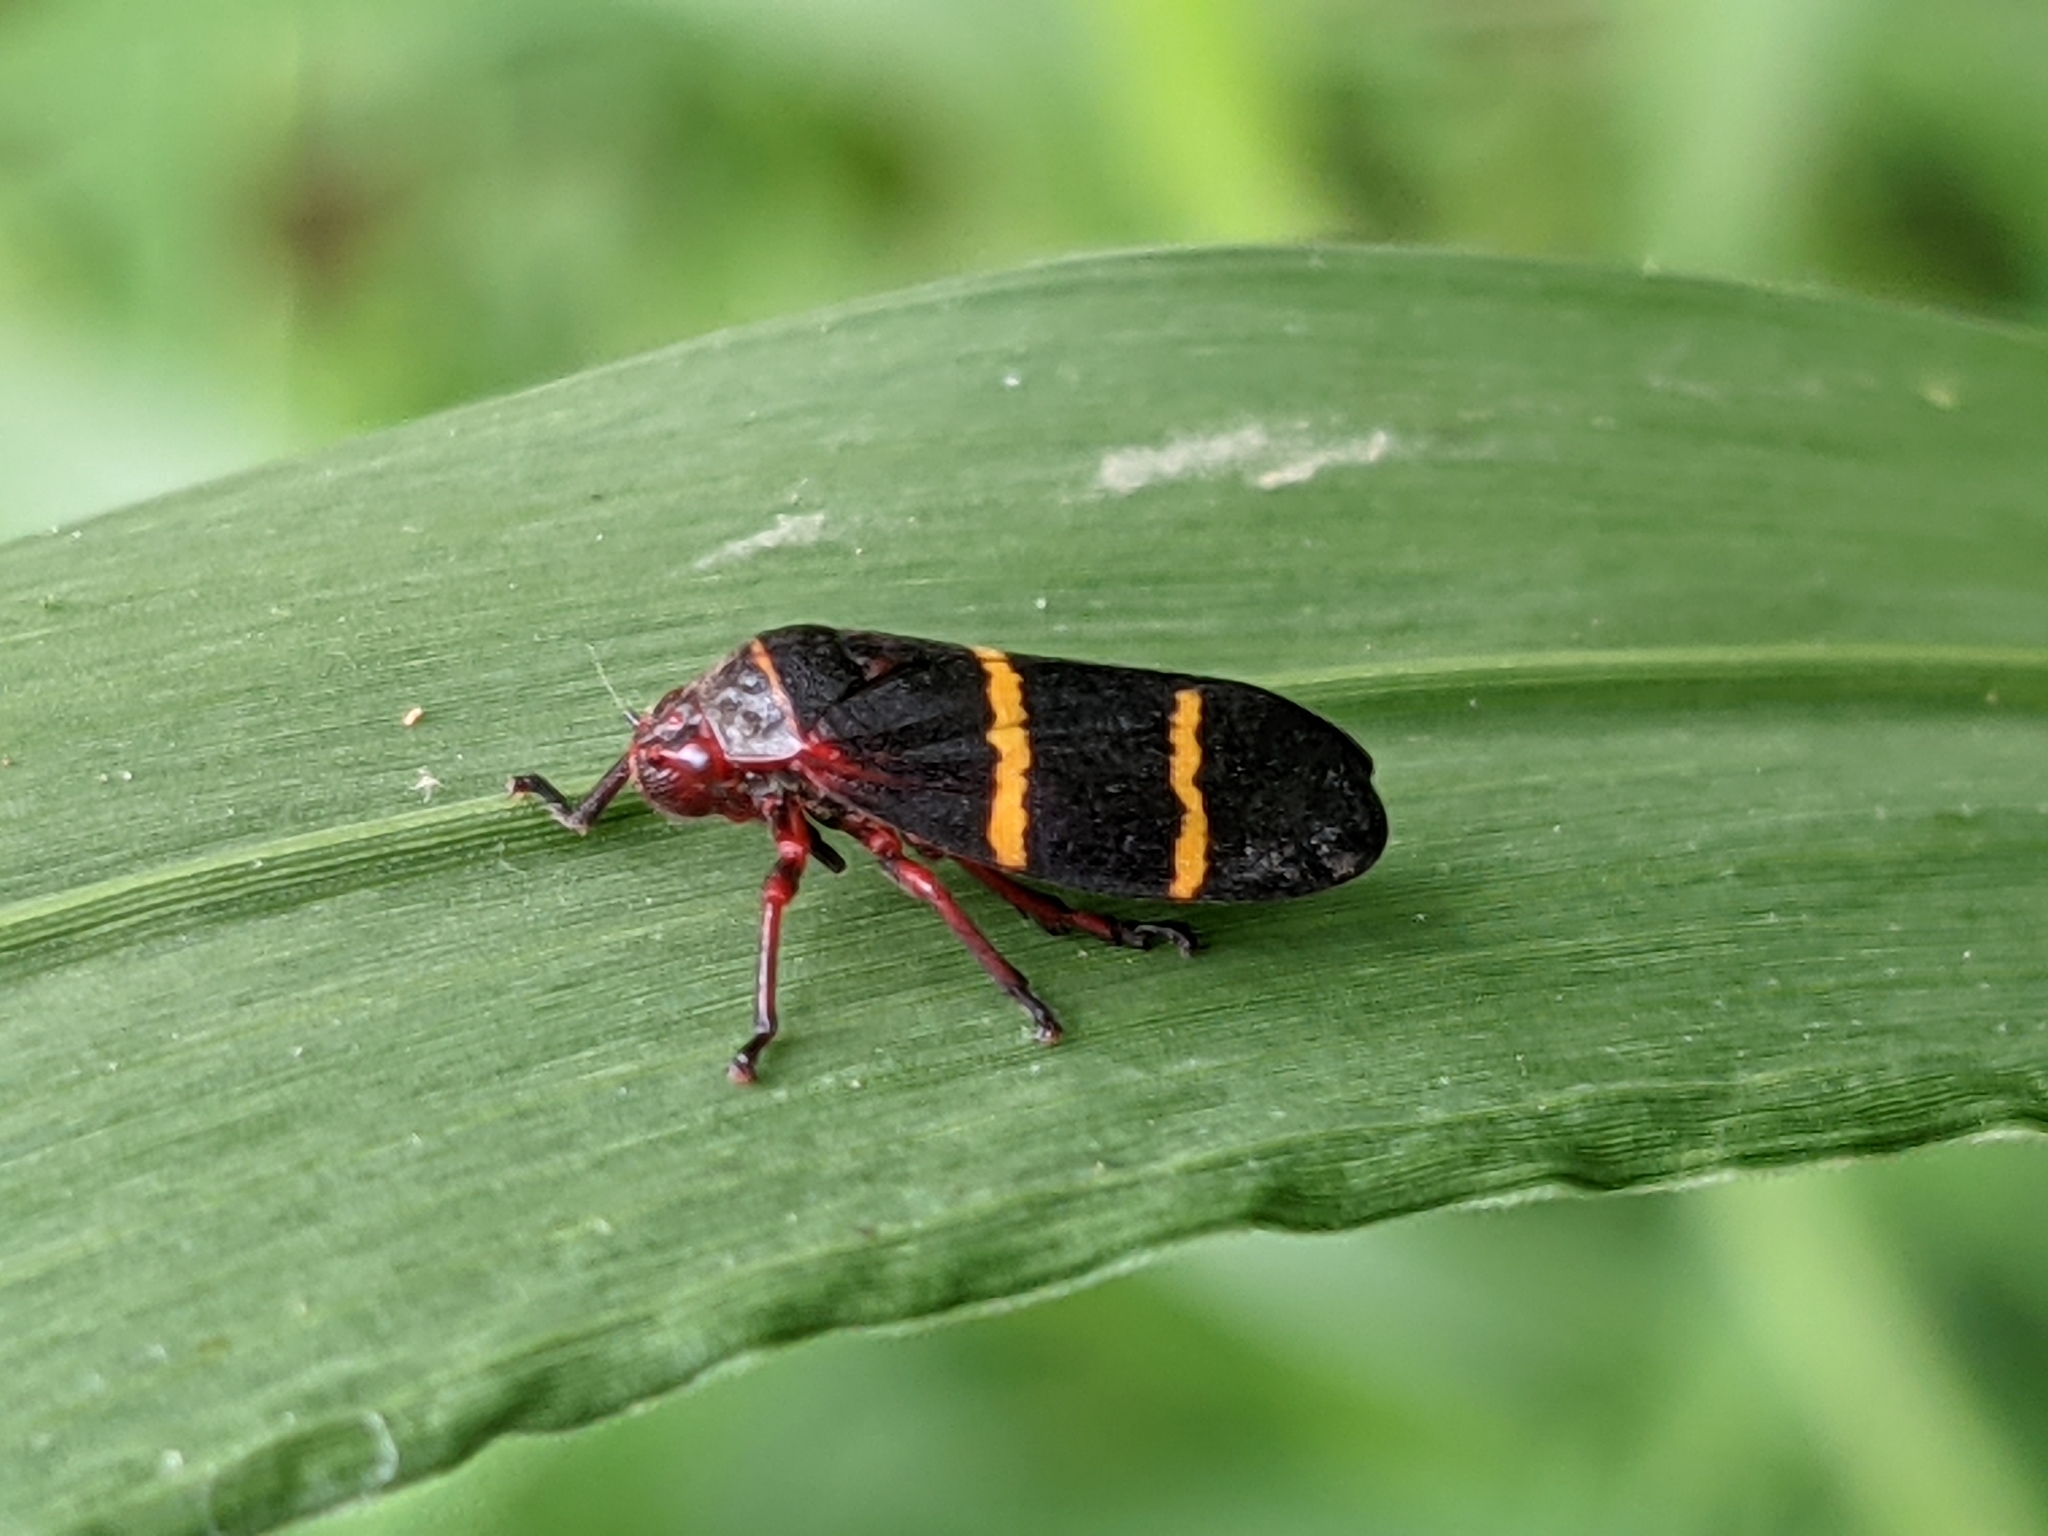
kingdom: Animalia
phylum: Arthropoda
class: Insecta
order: Hemiptera
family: Cercopidae
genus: Prosapia
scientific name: Prosapia bicincta
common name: Twolined spittlebug
